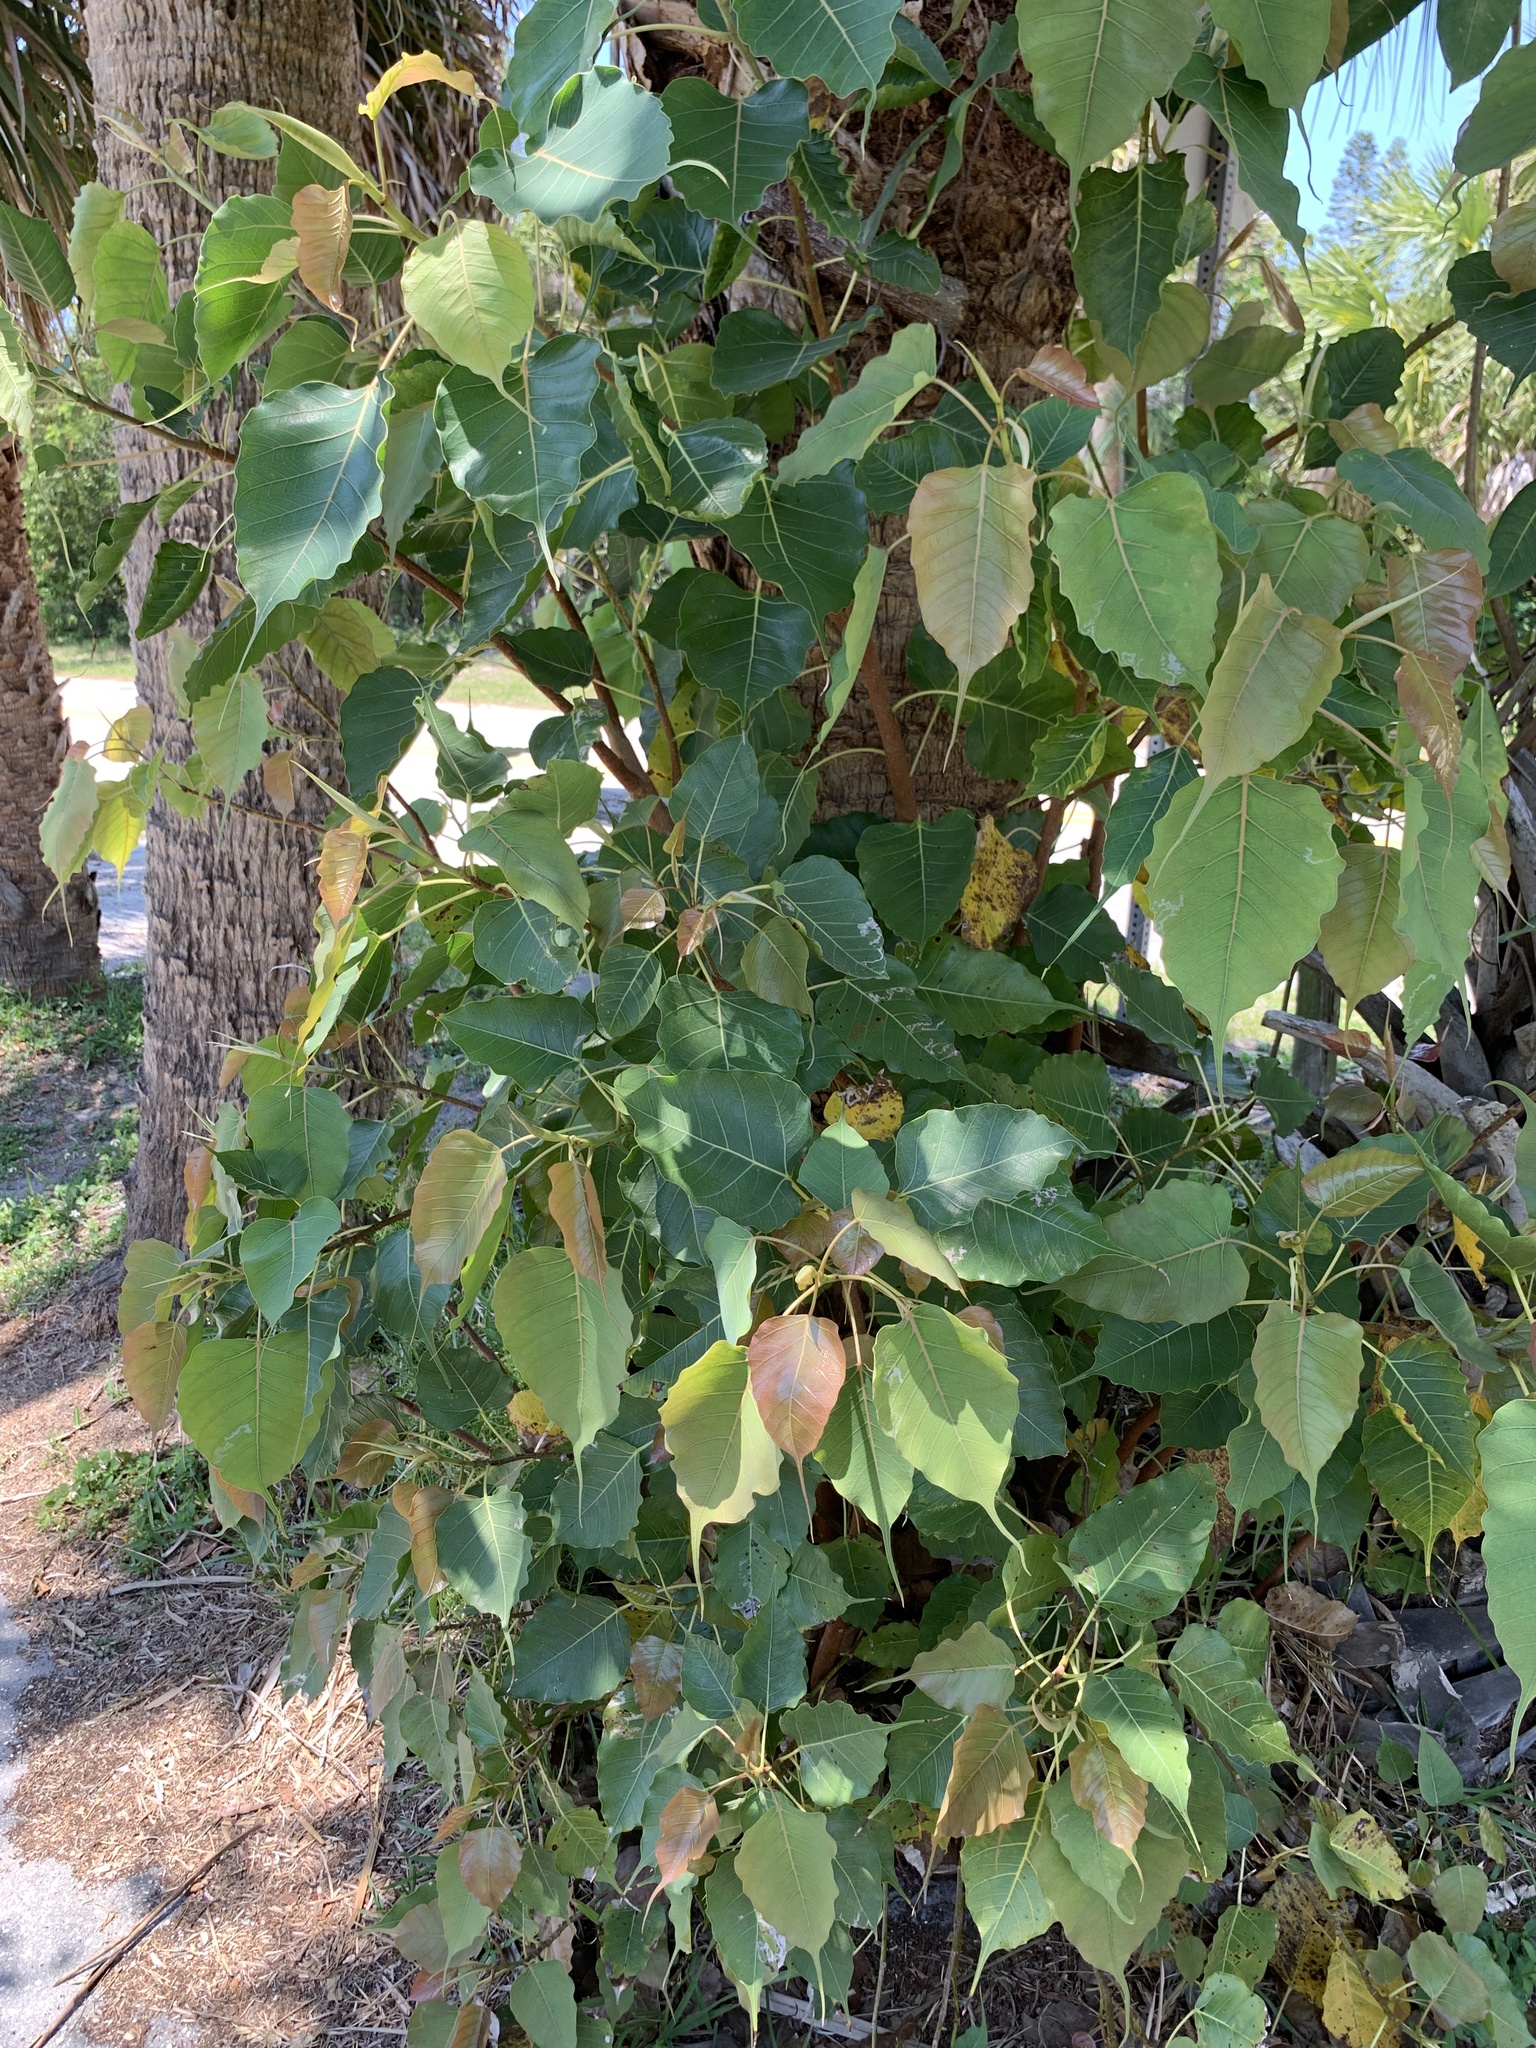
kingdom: Plantae
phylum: Tracheophyta
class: Magnoliopsida
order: Rosales
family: Moraceae
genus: Ficus
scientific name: Ficus religiosa
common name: Bodhi tree
